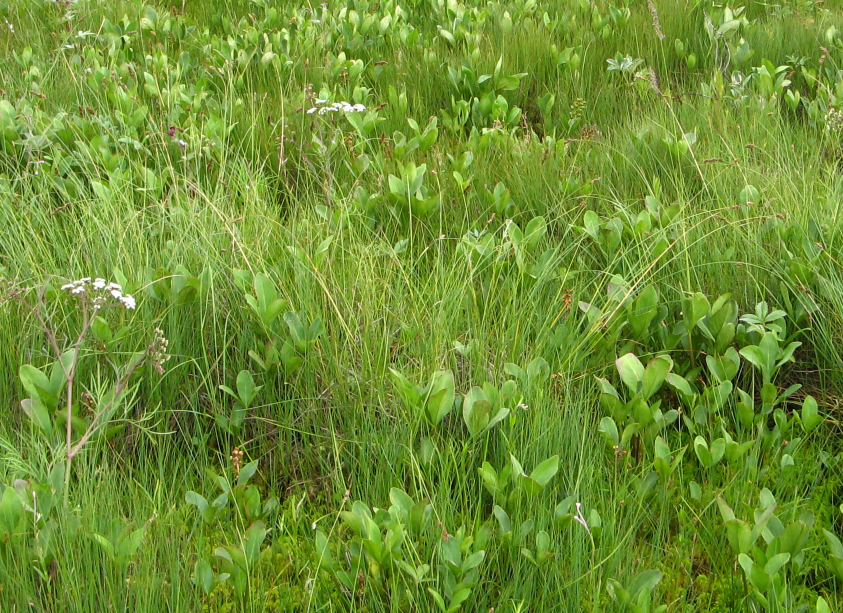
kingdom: Plantae
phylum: Tracheophyta
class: Liliopsida
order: Poales
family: Cyperaceae
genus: Carex
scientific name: Carex appropinquata
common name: Fibrous tussock-sedge
